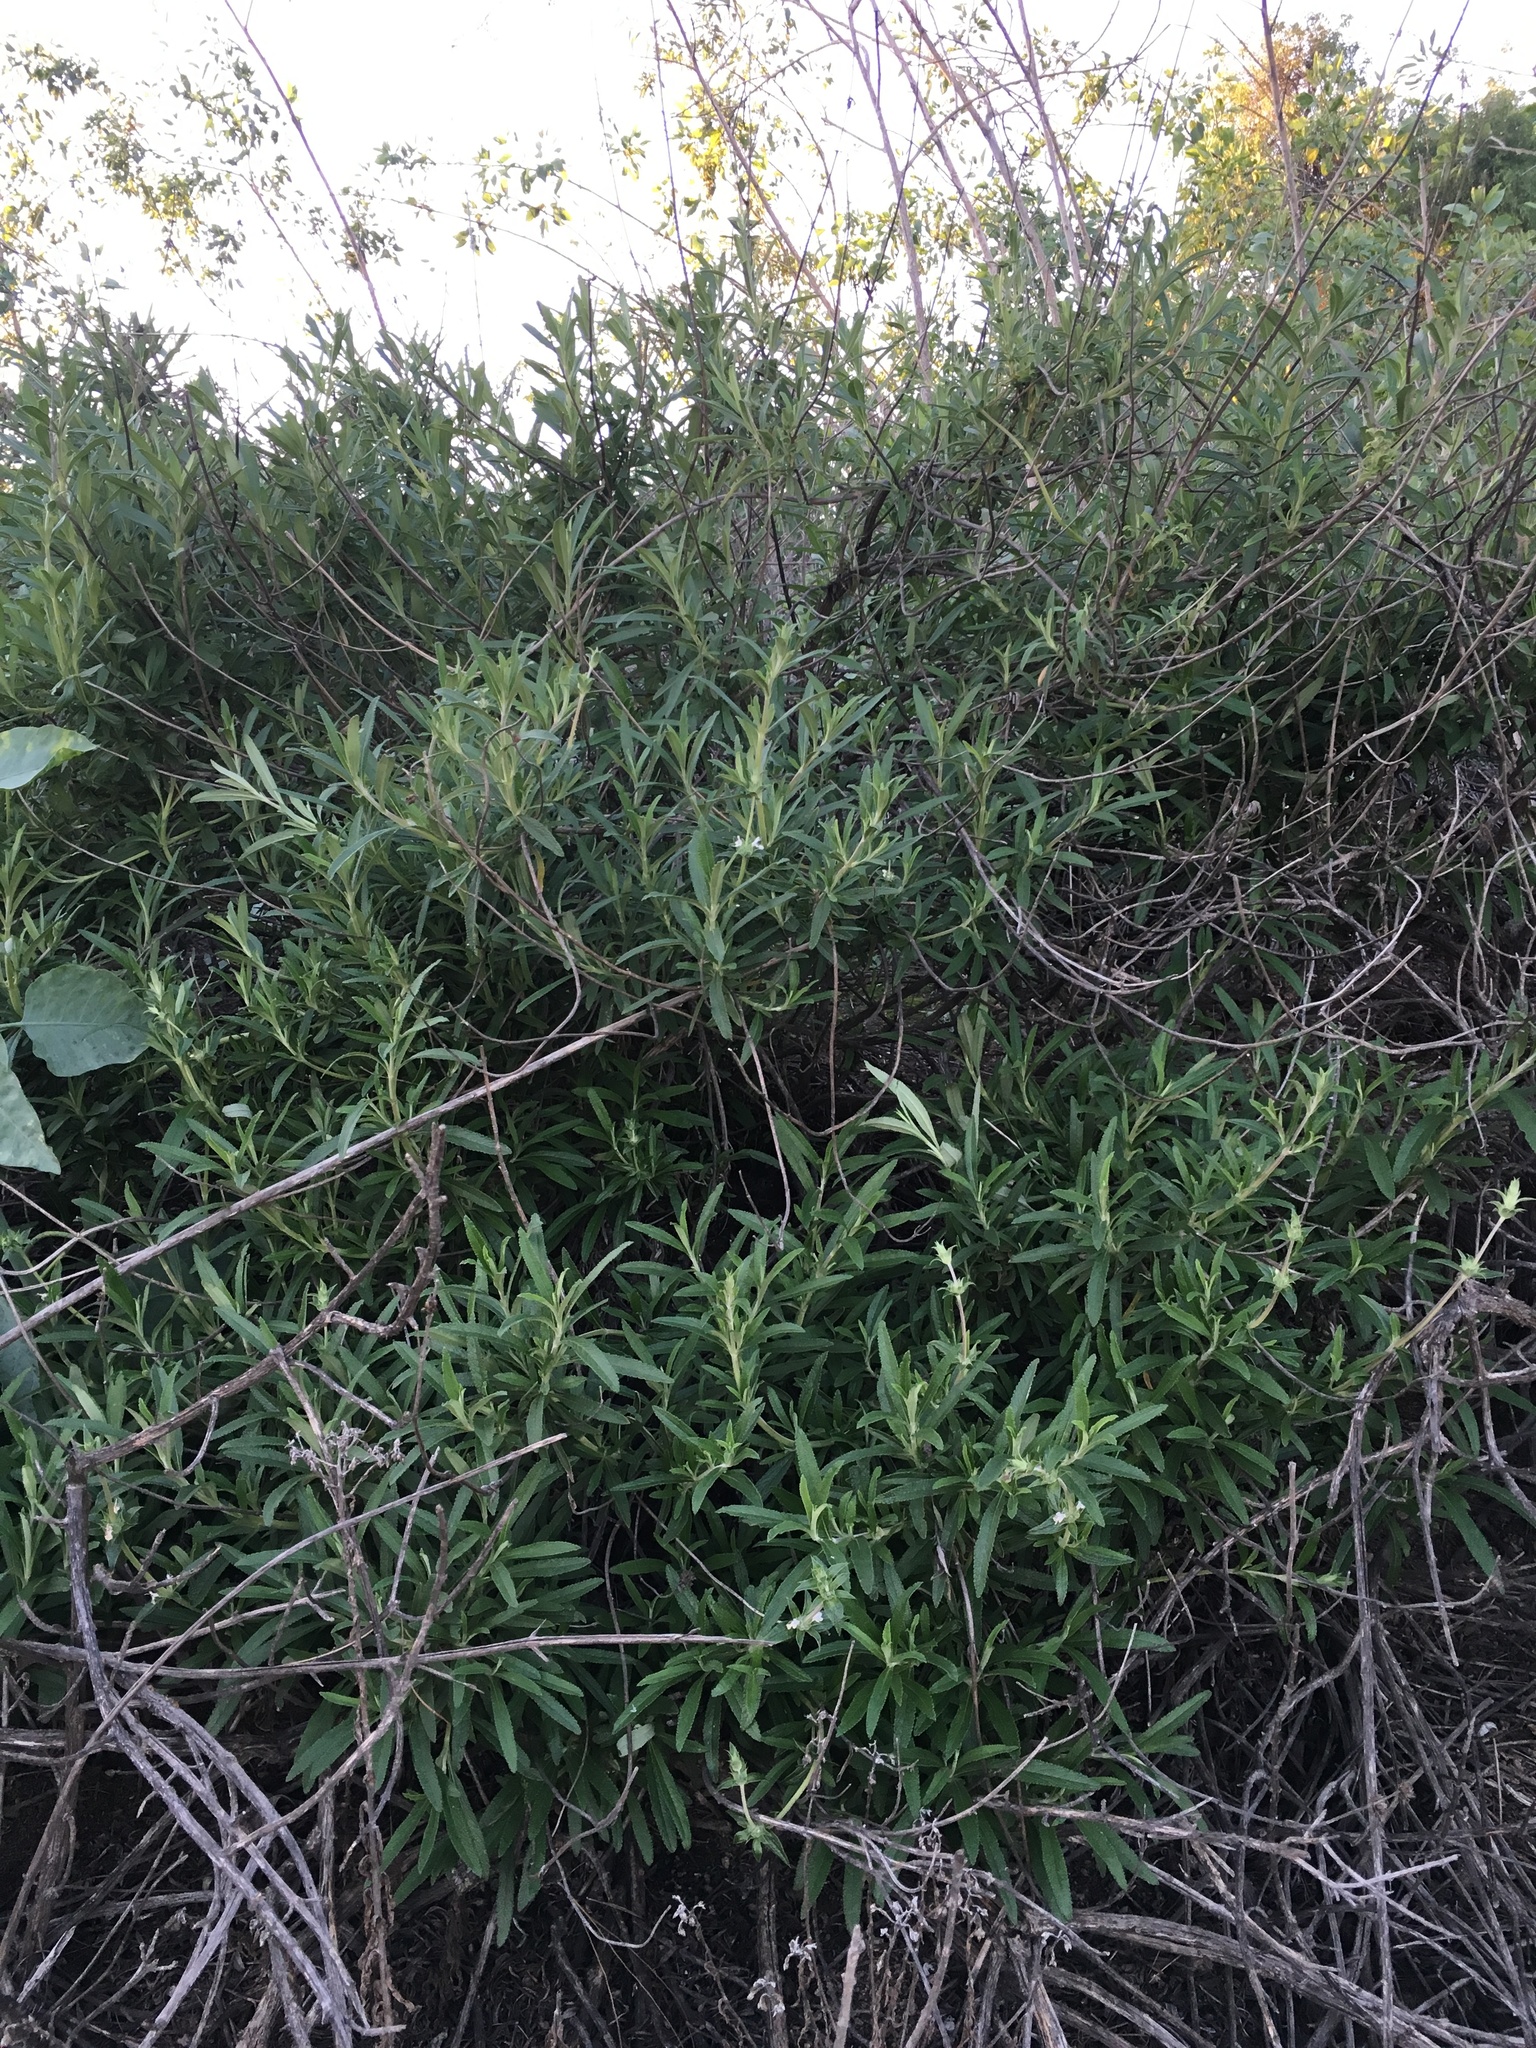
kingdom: Plantae
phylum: Tracheophyta
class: Magnoliopsida
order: Lamiales
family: Lamiaceae
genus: Salvia
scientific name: Salvia mellifera
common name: Black sage
